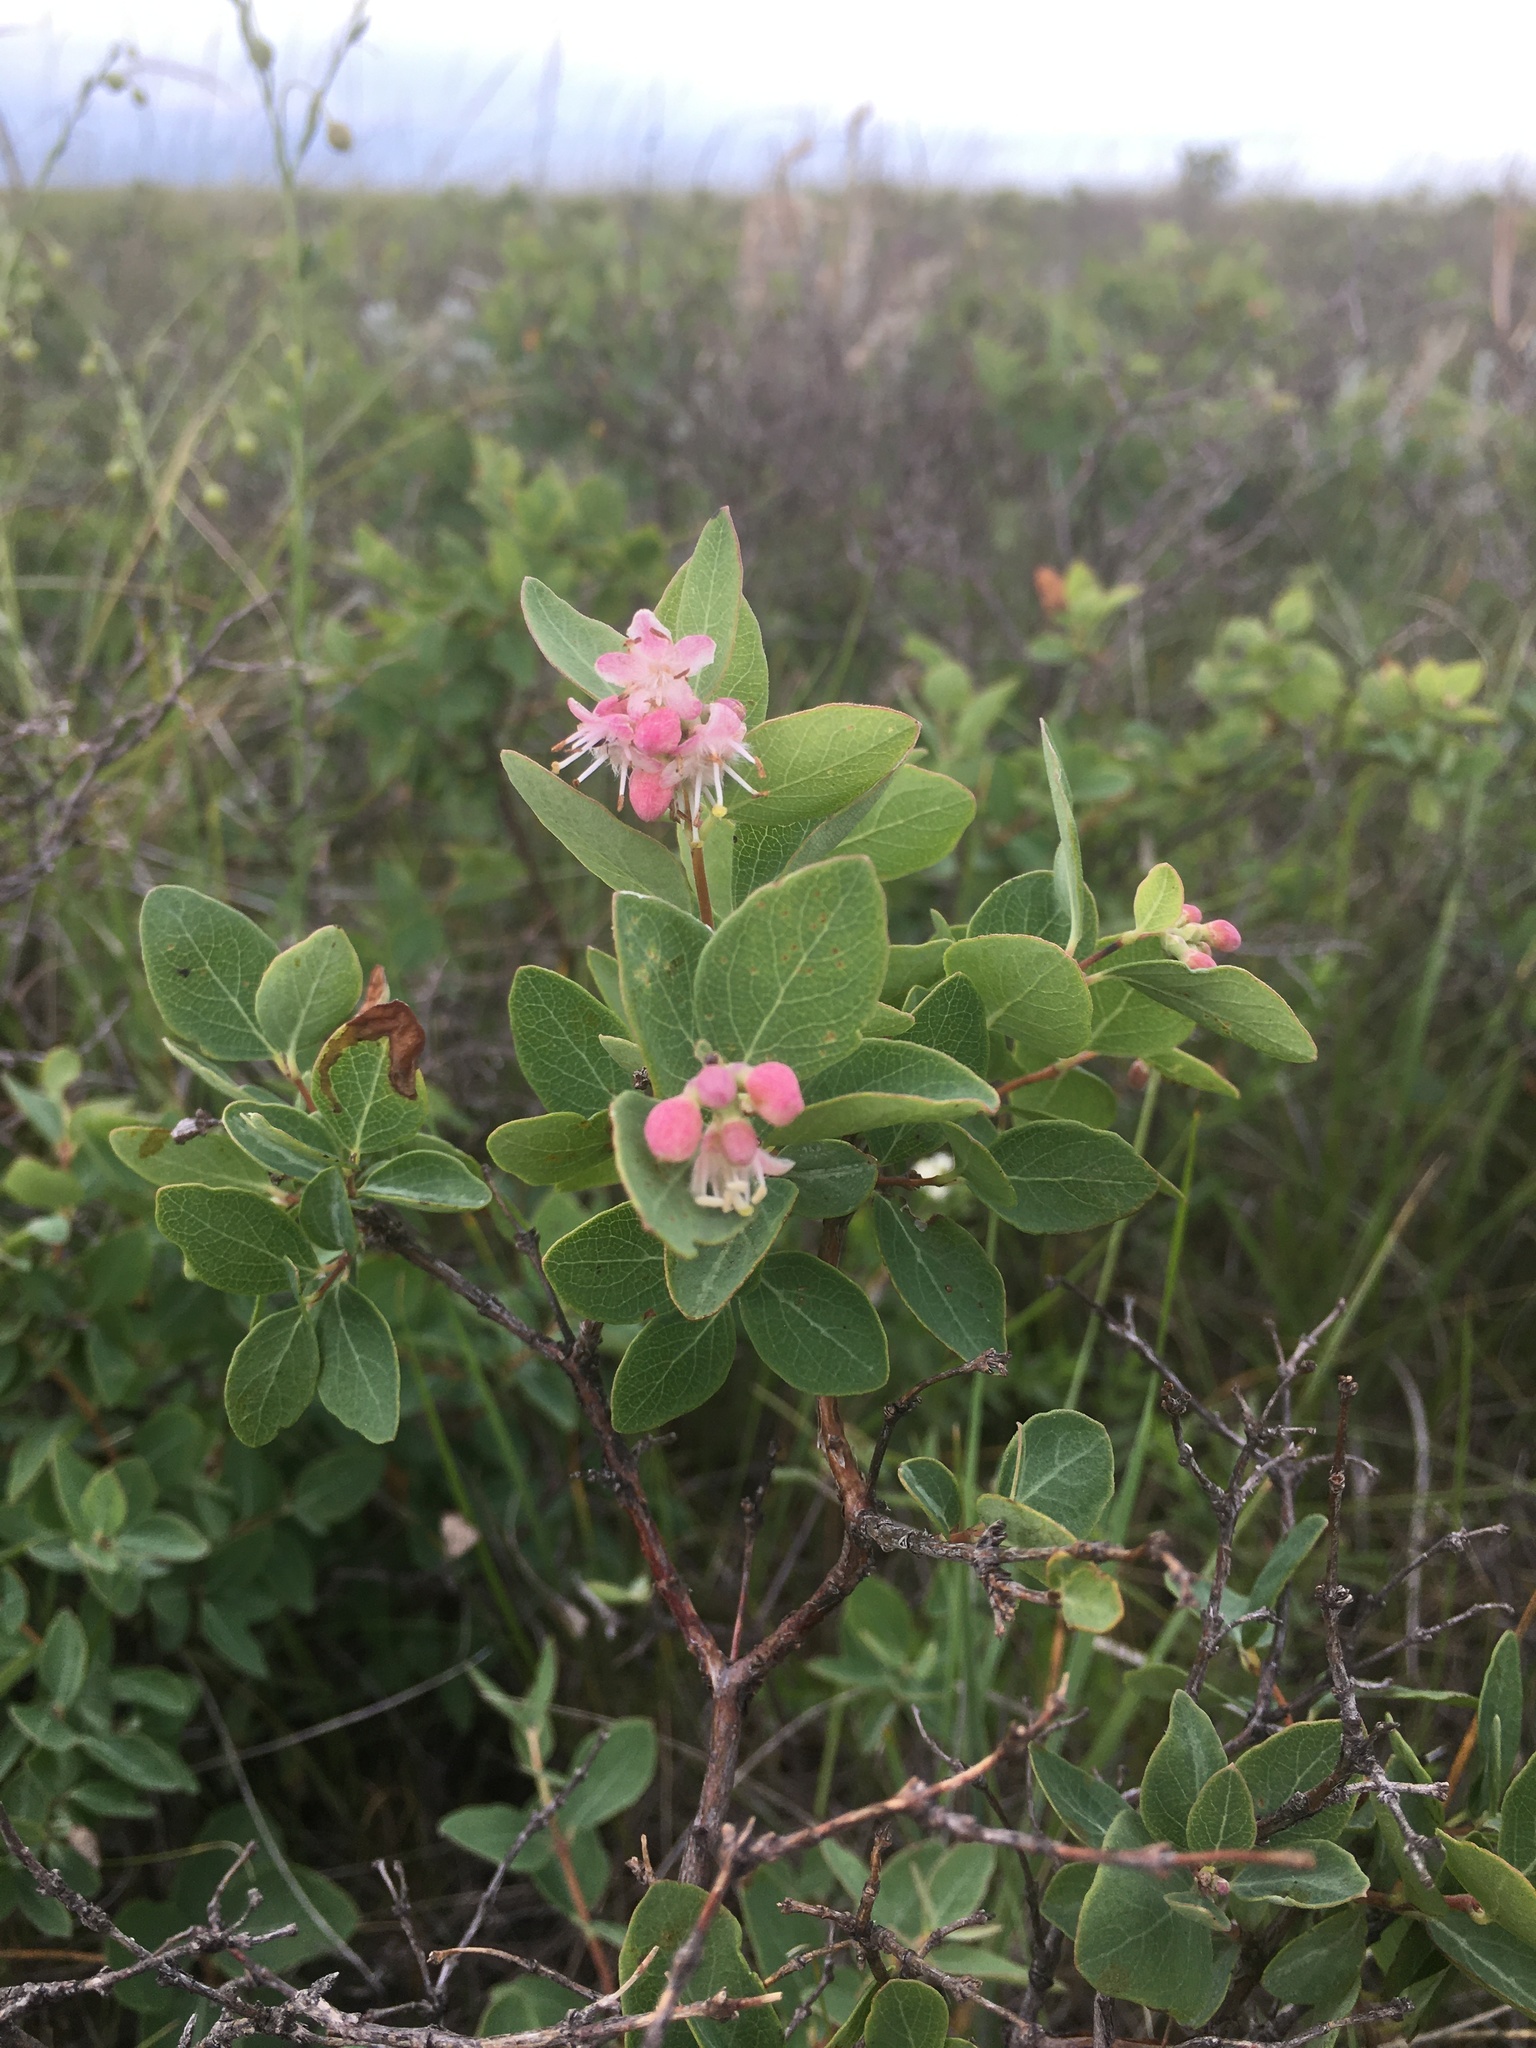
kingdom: Plantae
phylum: Tracheophyta
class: Magnoliopsida
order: Dipsacales
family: Caprifoliaceae
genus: Symphoricarpos
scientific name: Symphoricarpos occidentalis
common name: Wolfberry
